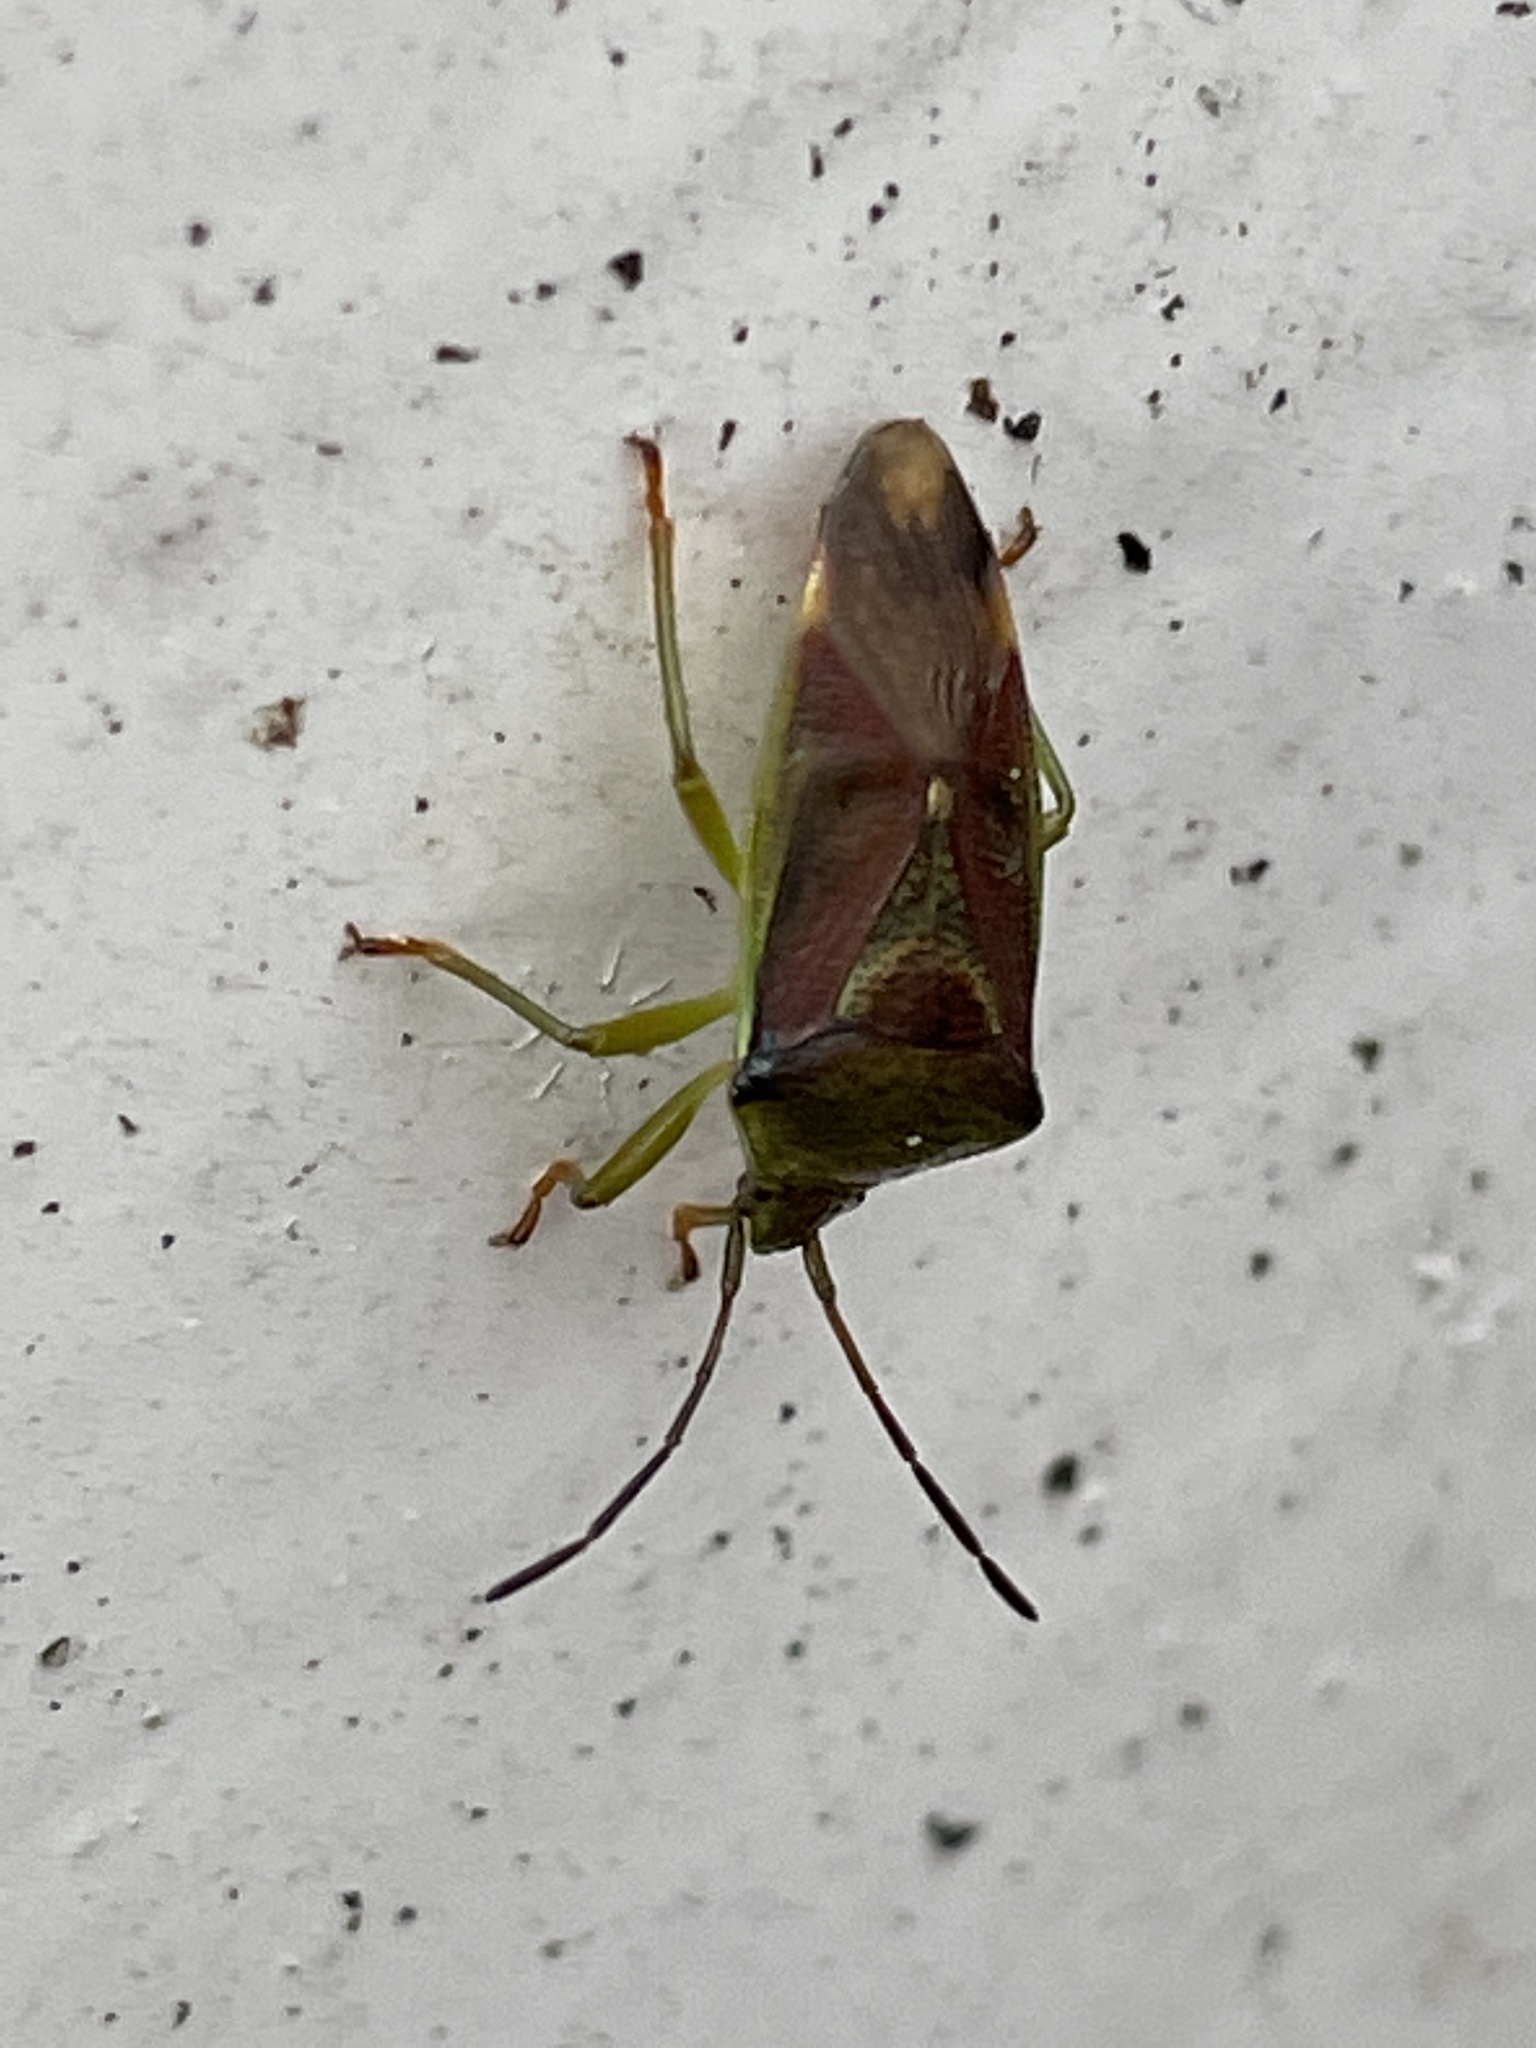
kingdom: Animalia
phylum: Arthropoda
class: Insecta
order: Hemiptera
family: Acanthosomatidae
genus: Elasmostethus
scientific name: Elasmostethus interstinctus
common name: Birch shieldbug
